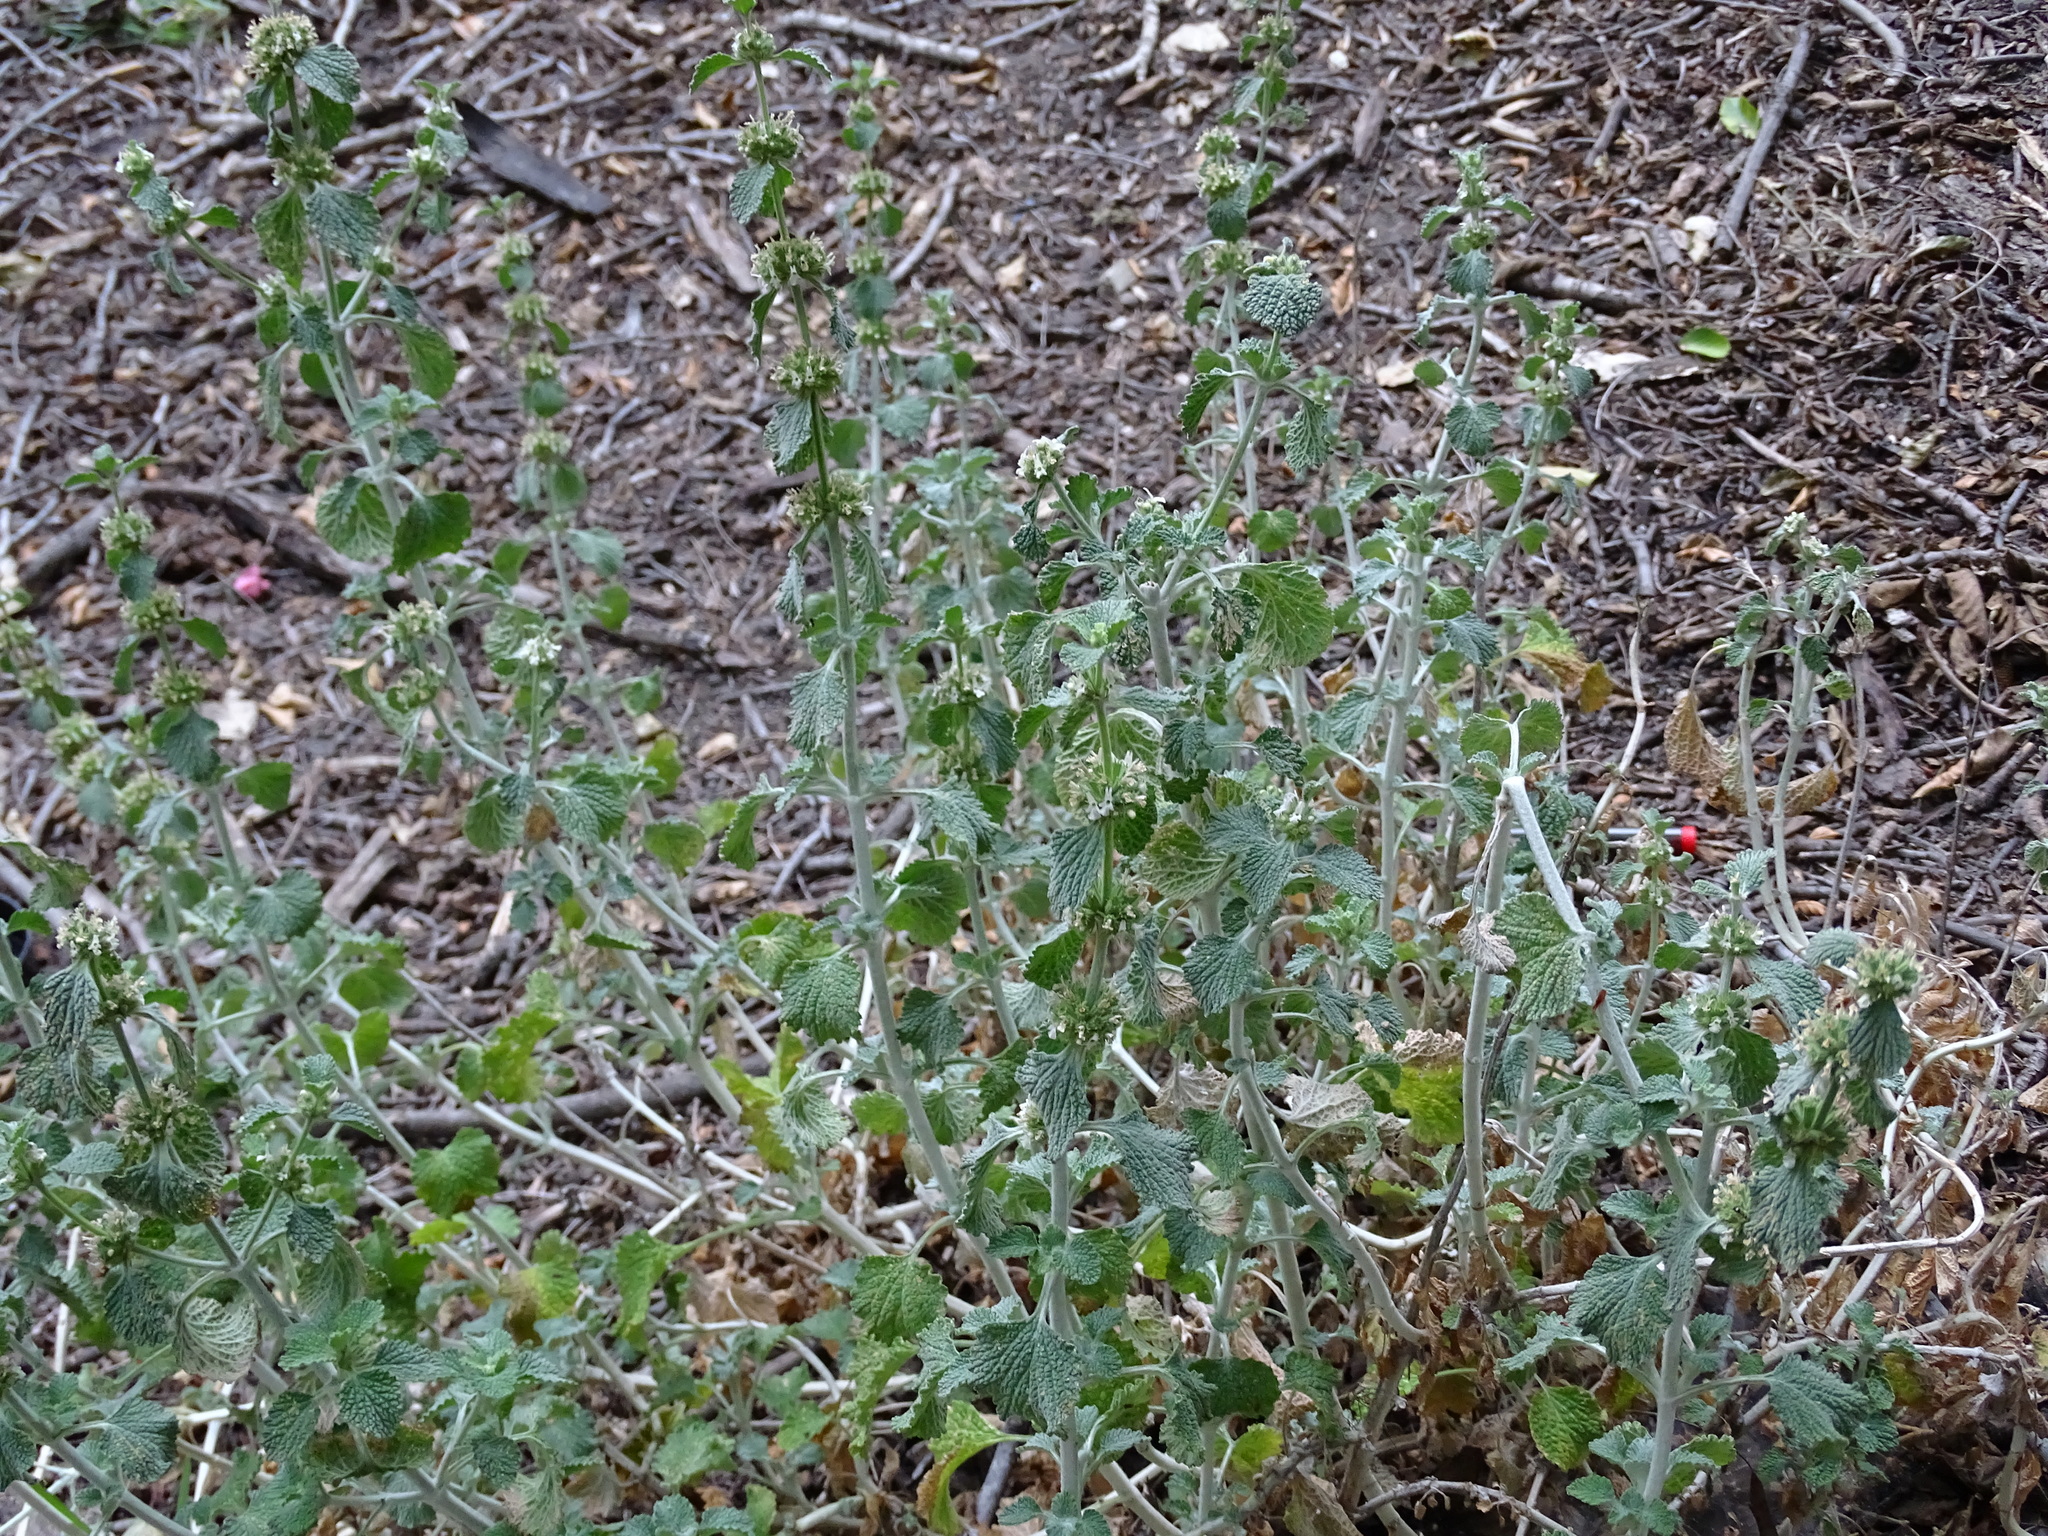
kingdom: Plantae
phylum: Tracheophyta
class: Magnoliopsida
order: Lamiales
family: Lamiaceae
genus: Marrubium
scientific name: Marrubium vulgare
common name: Horehound
